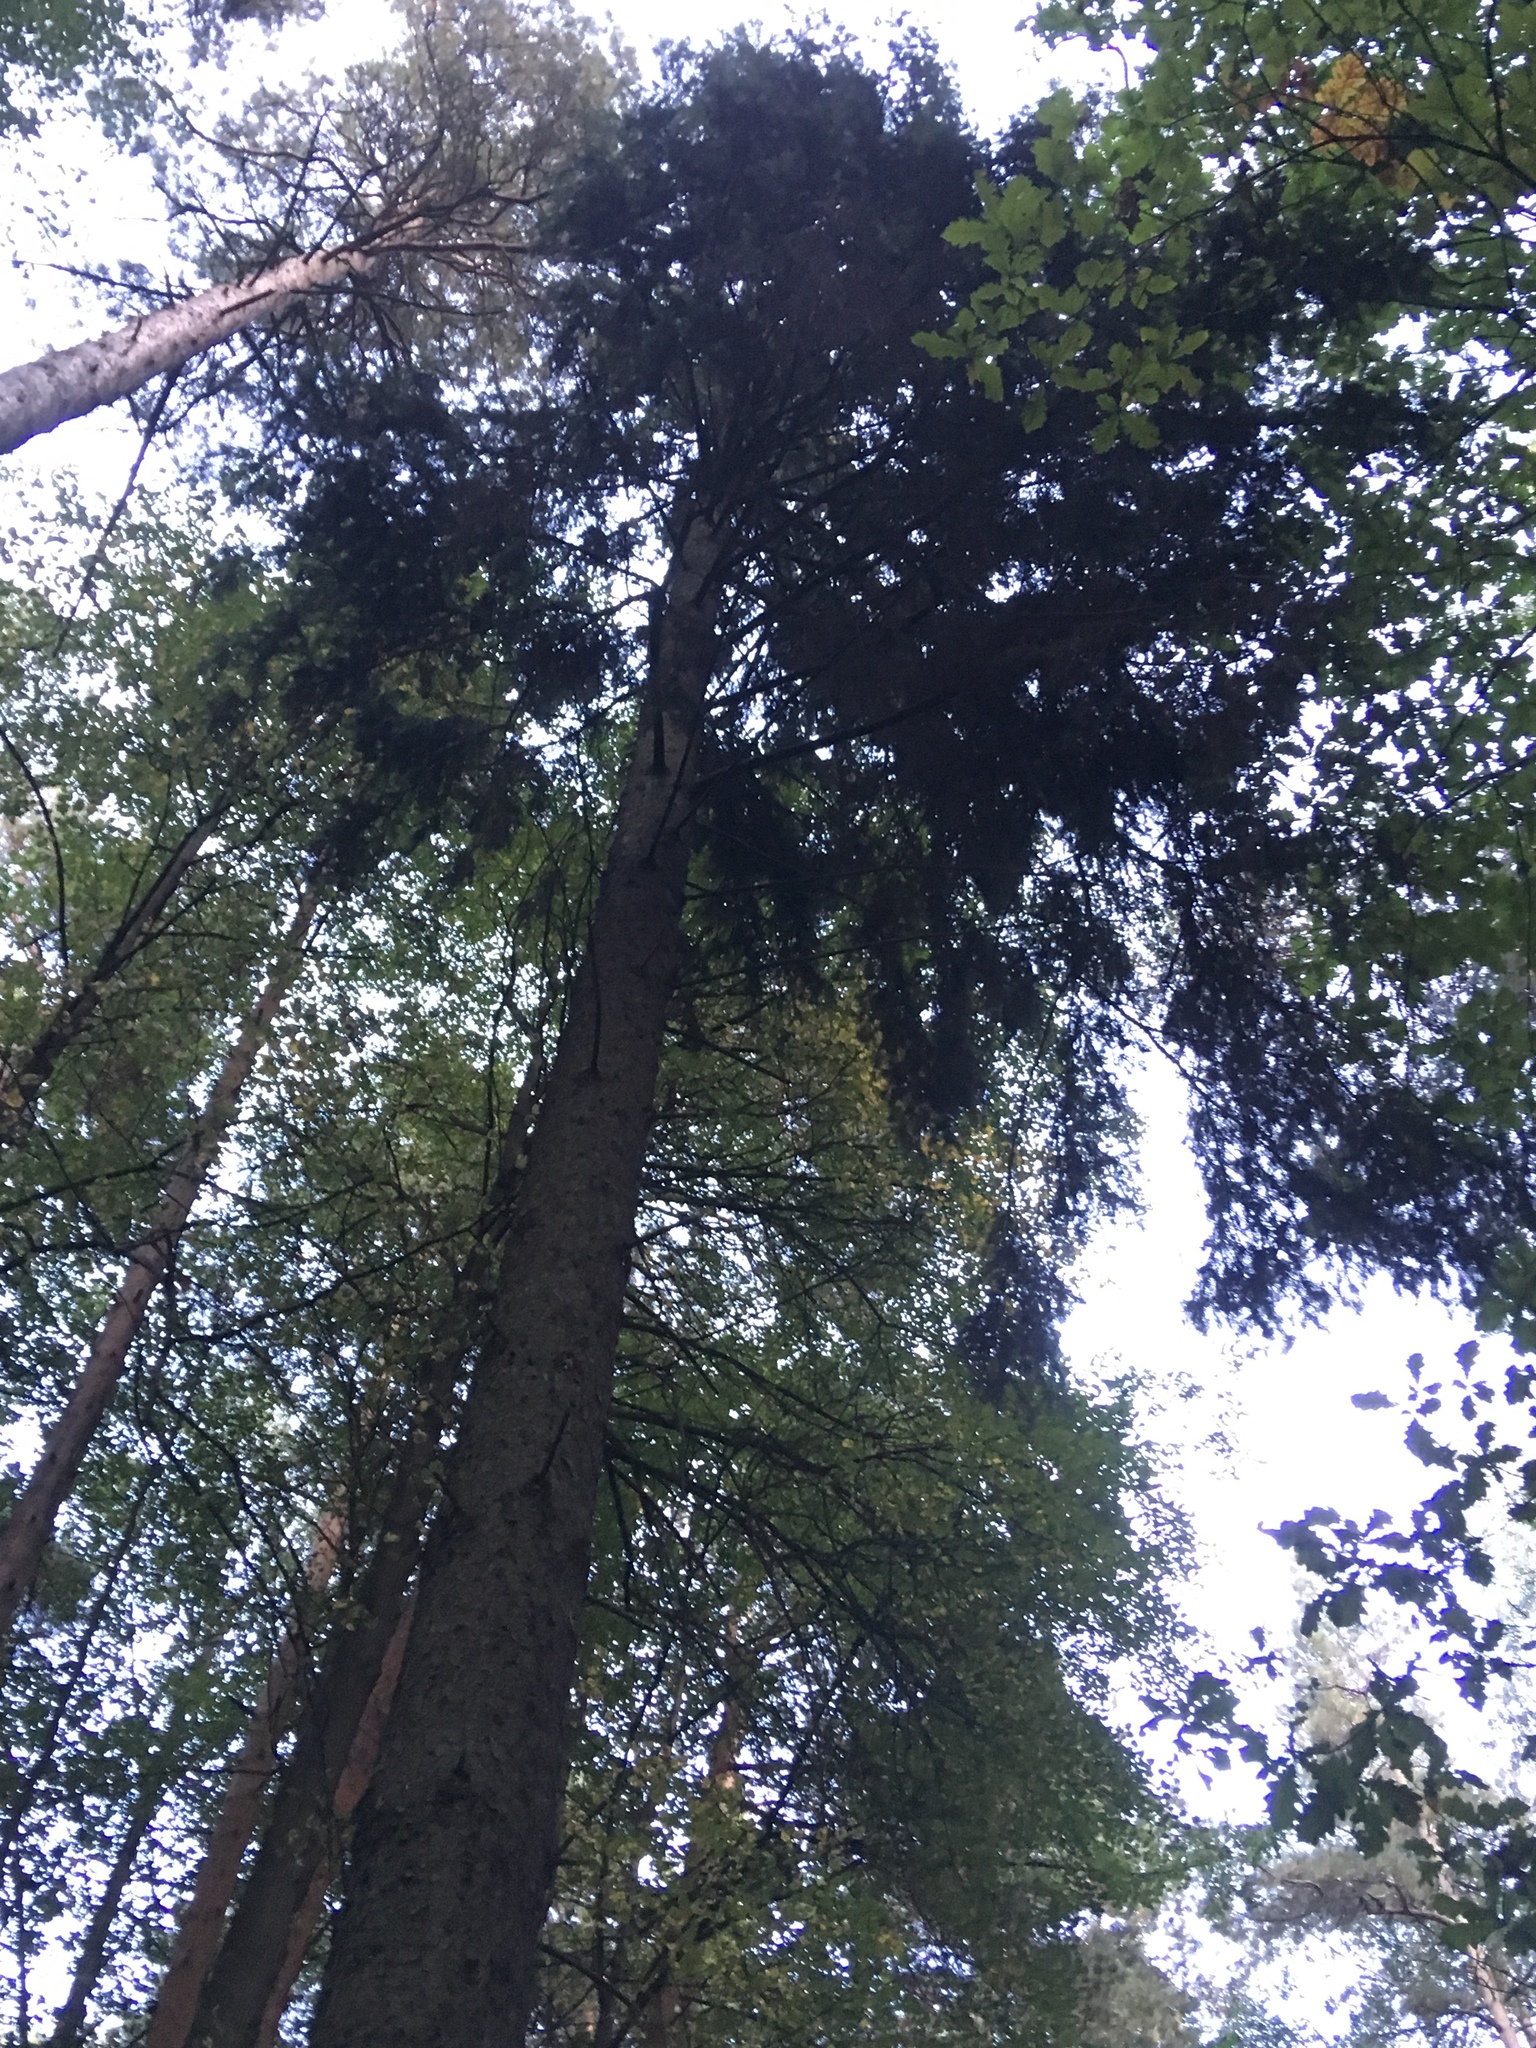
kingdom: Plantae
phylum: Tracheophyta
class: Pinopsida
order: Pinales
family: Pinaceae
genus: Picea
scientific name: Picea abies
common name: Norway spruce
